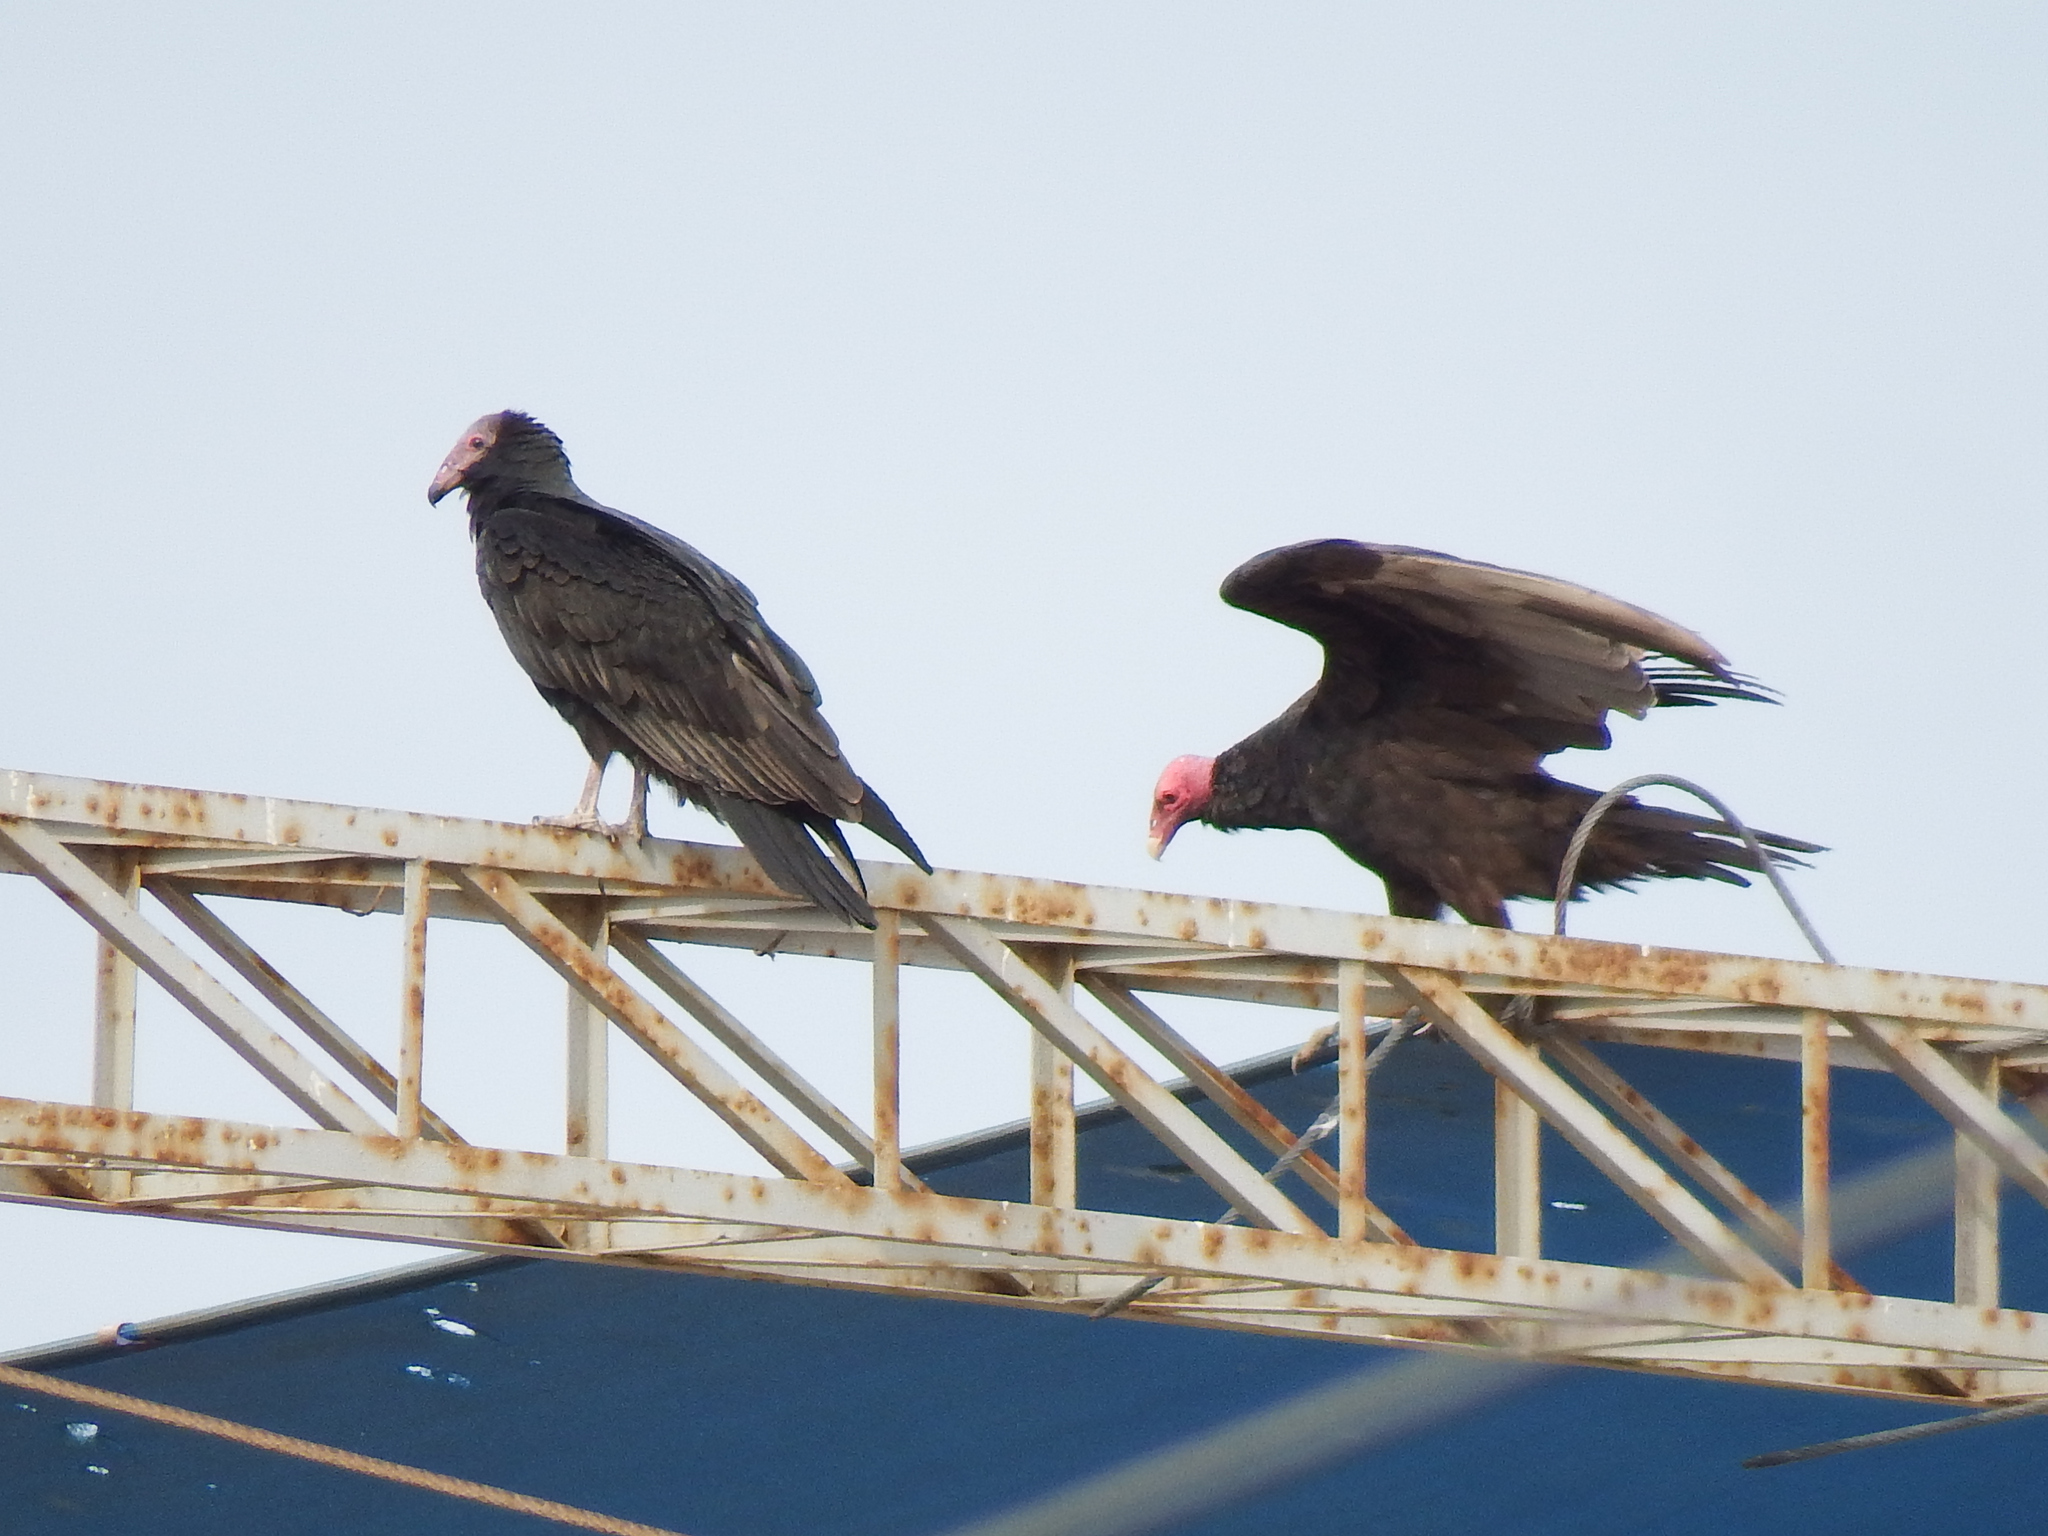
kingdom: Animalia
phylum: Chordata
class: Aves
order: Accipitriformes
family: Cathartidae
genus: Cathartes
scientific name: Cathartes aura
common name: Turkey vulture
